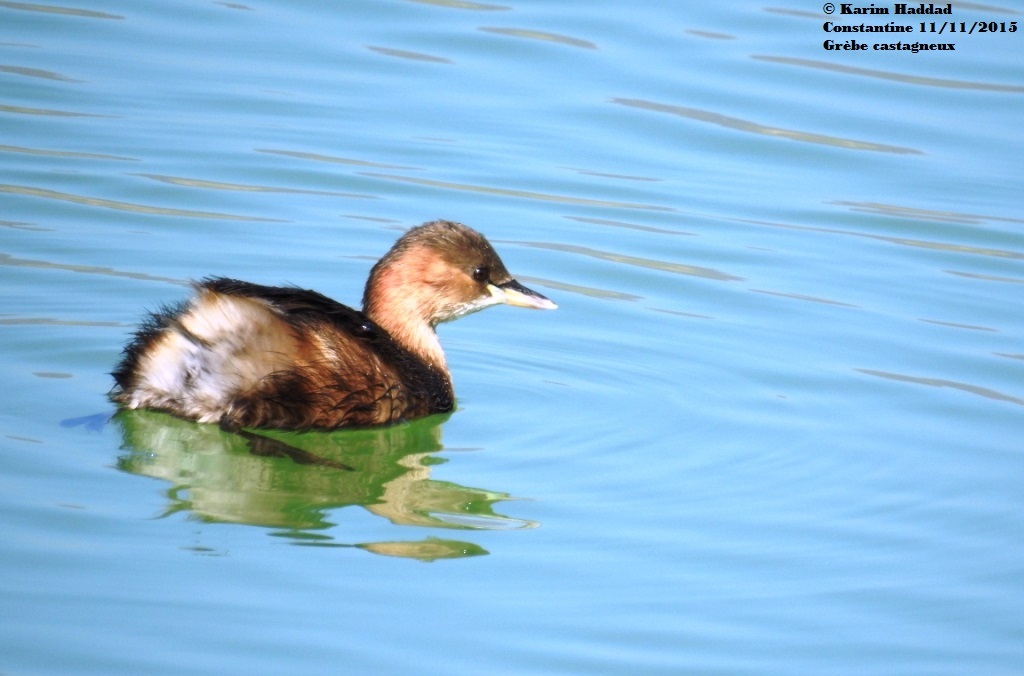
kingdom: Animalia
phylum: Chordata
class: Aves
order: Podicipediformes
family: Podicipedidae
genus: Tachybaptus
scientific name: Tachybaptus ruficollis
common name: Little grebe
